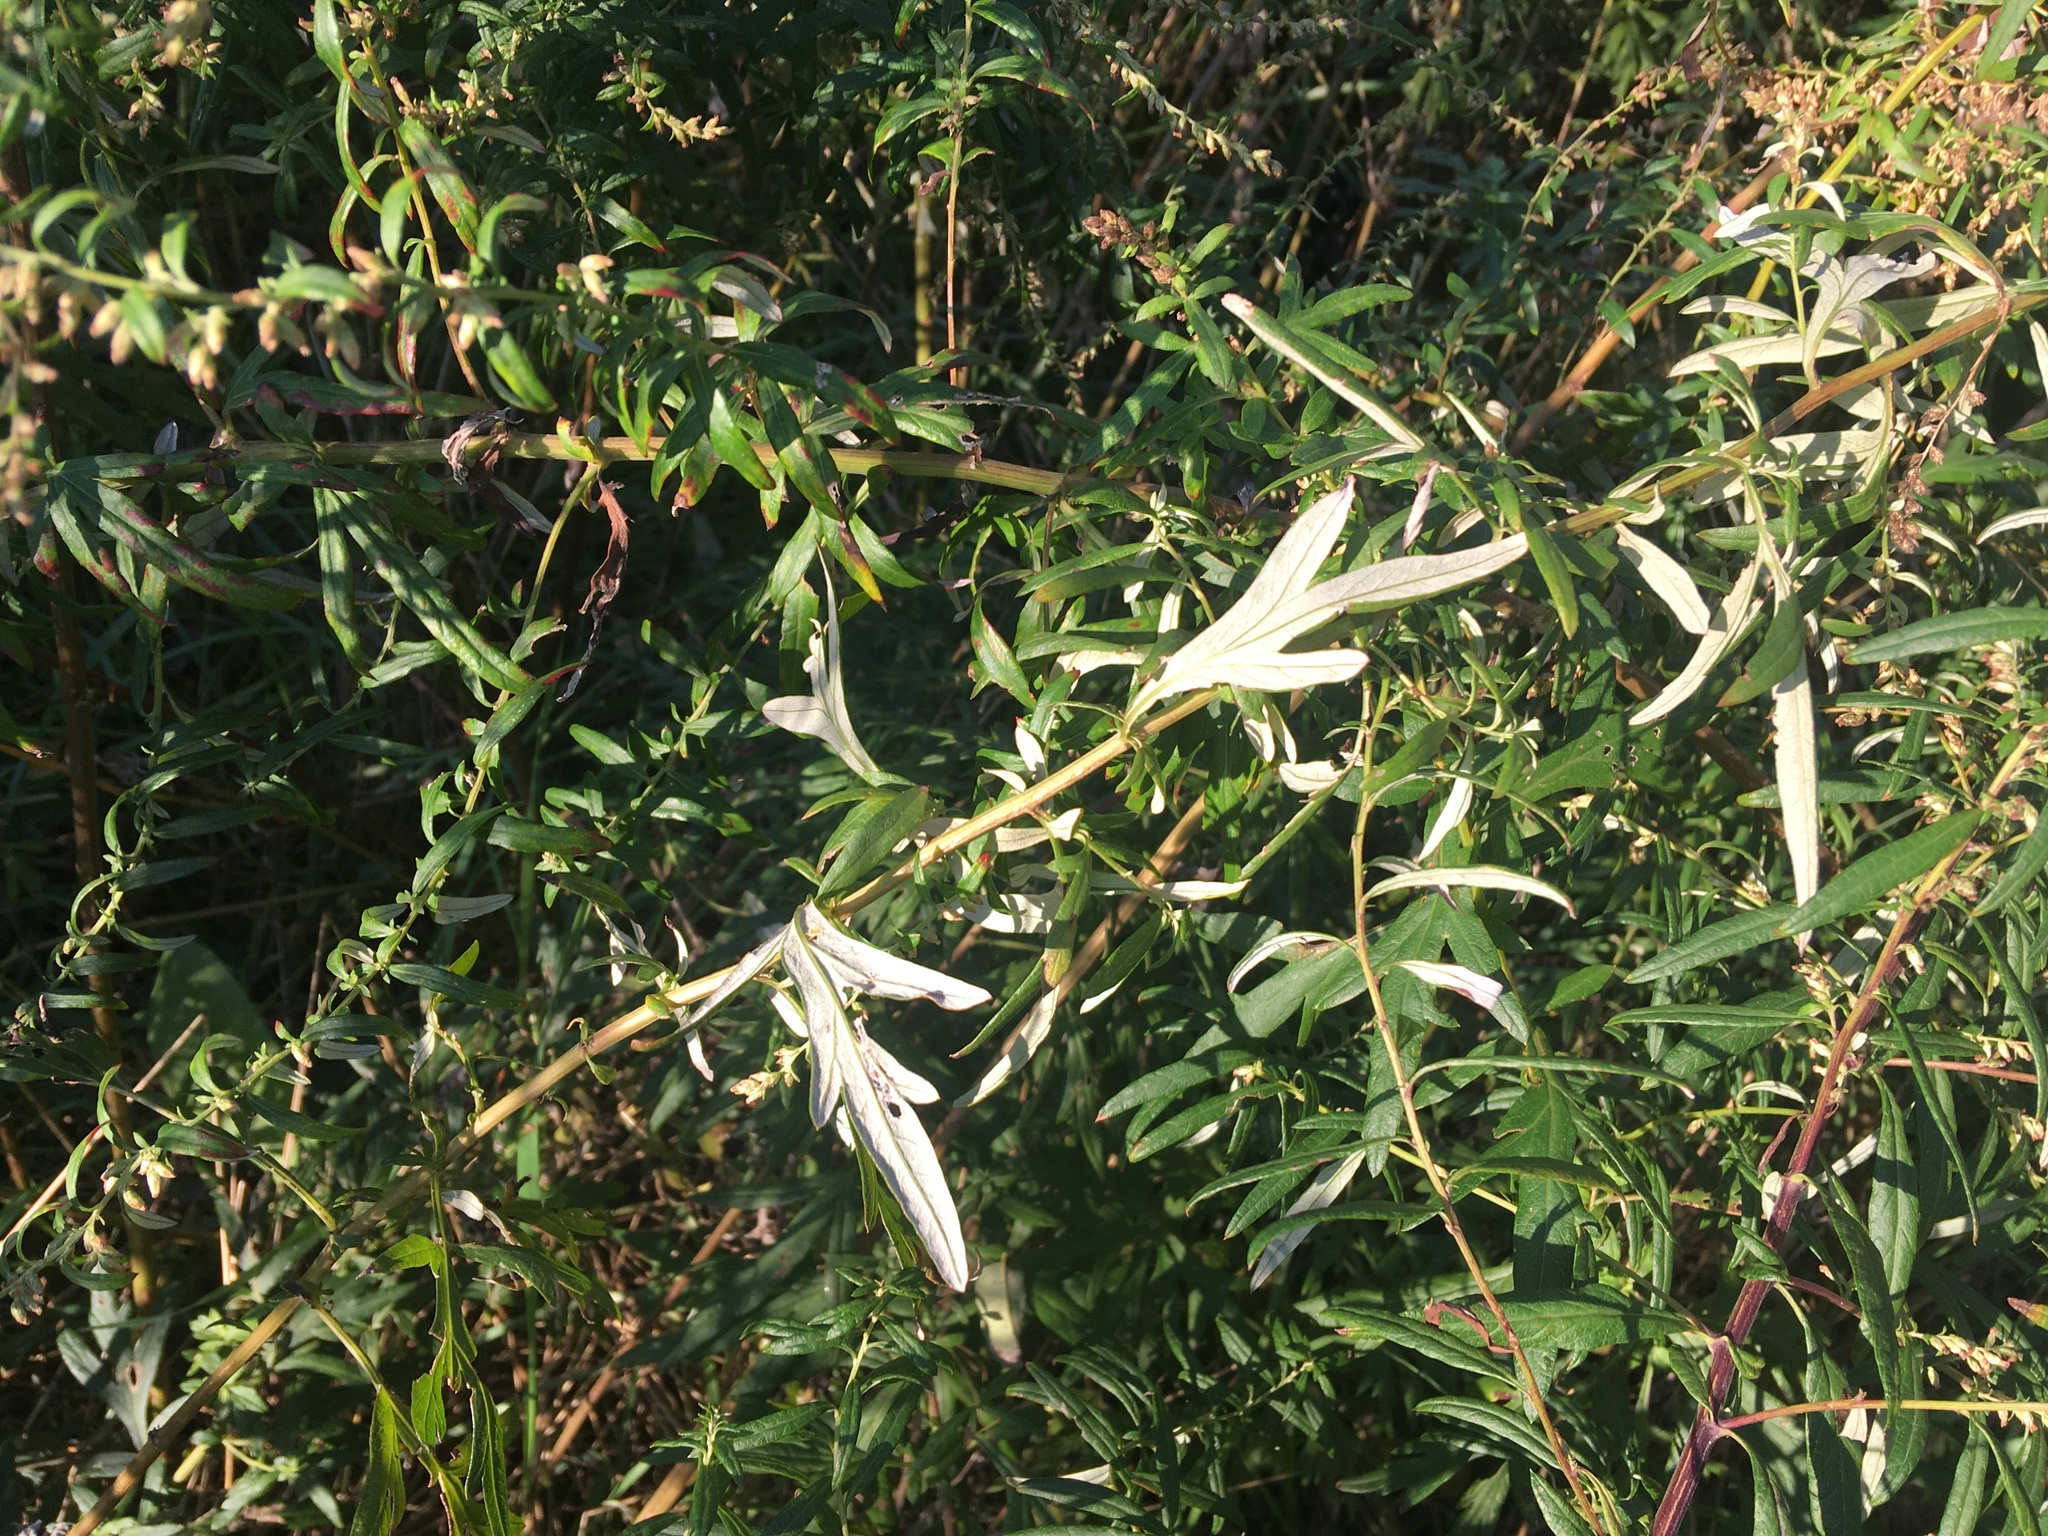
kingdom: Plantae
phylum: Tracheophyta
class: Magnoliopsida
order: Asterales
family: Asteraceae
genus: Artemisia
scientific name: Artemisia vulgaris
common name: Mugwort
